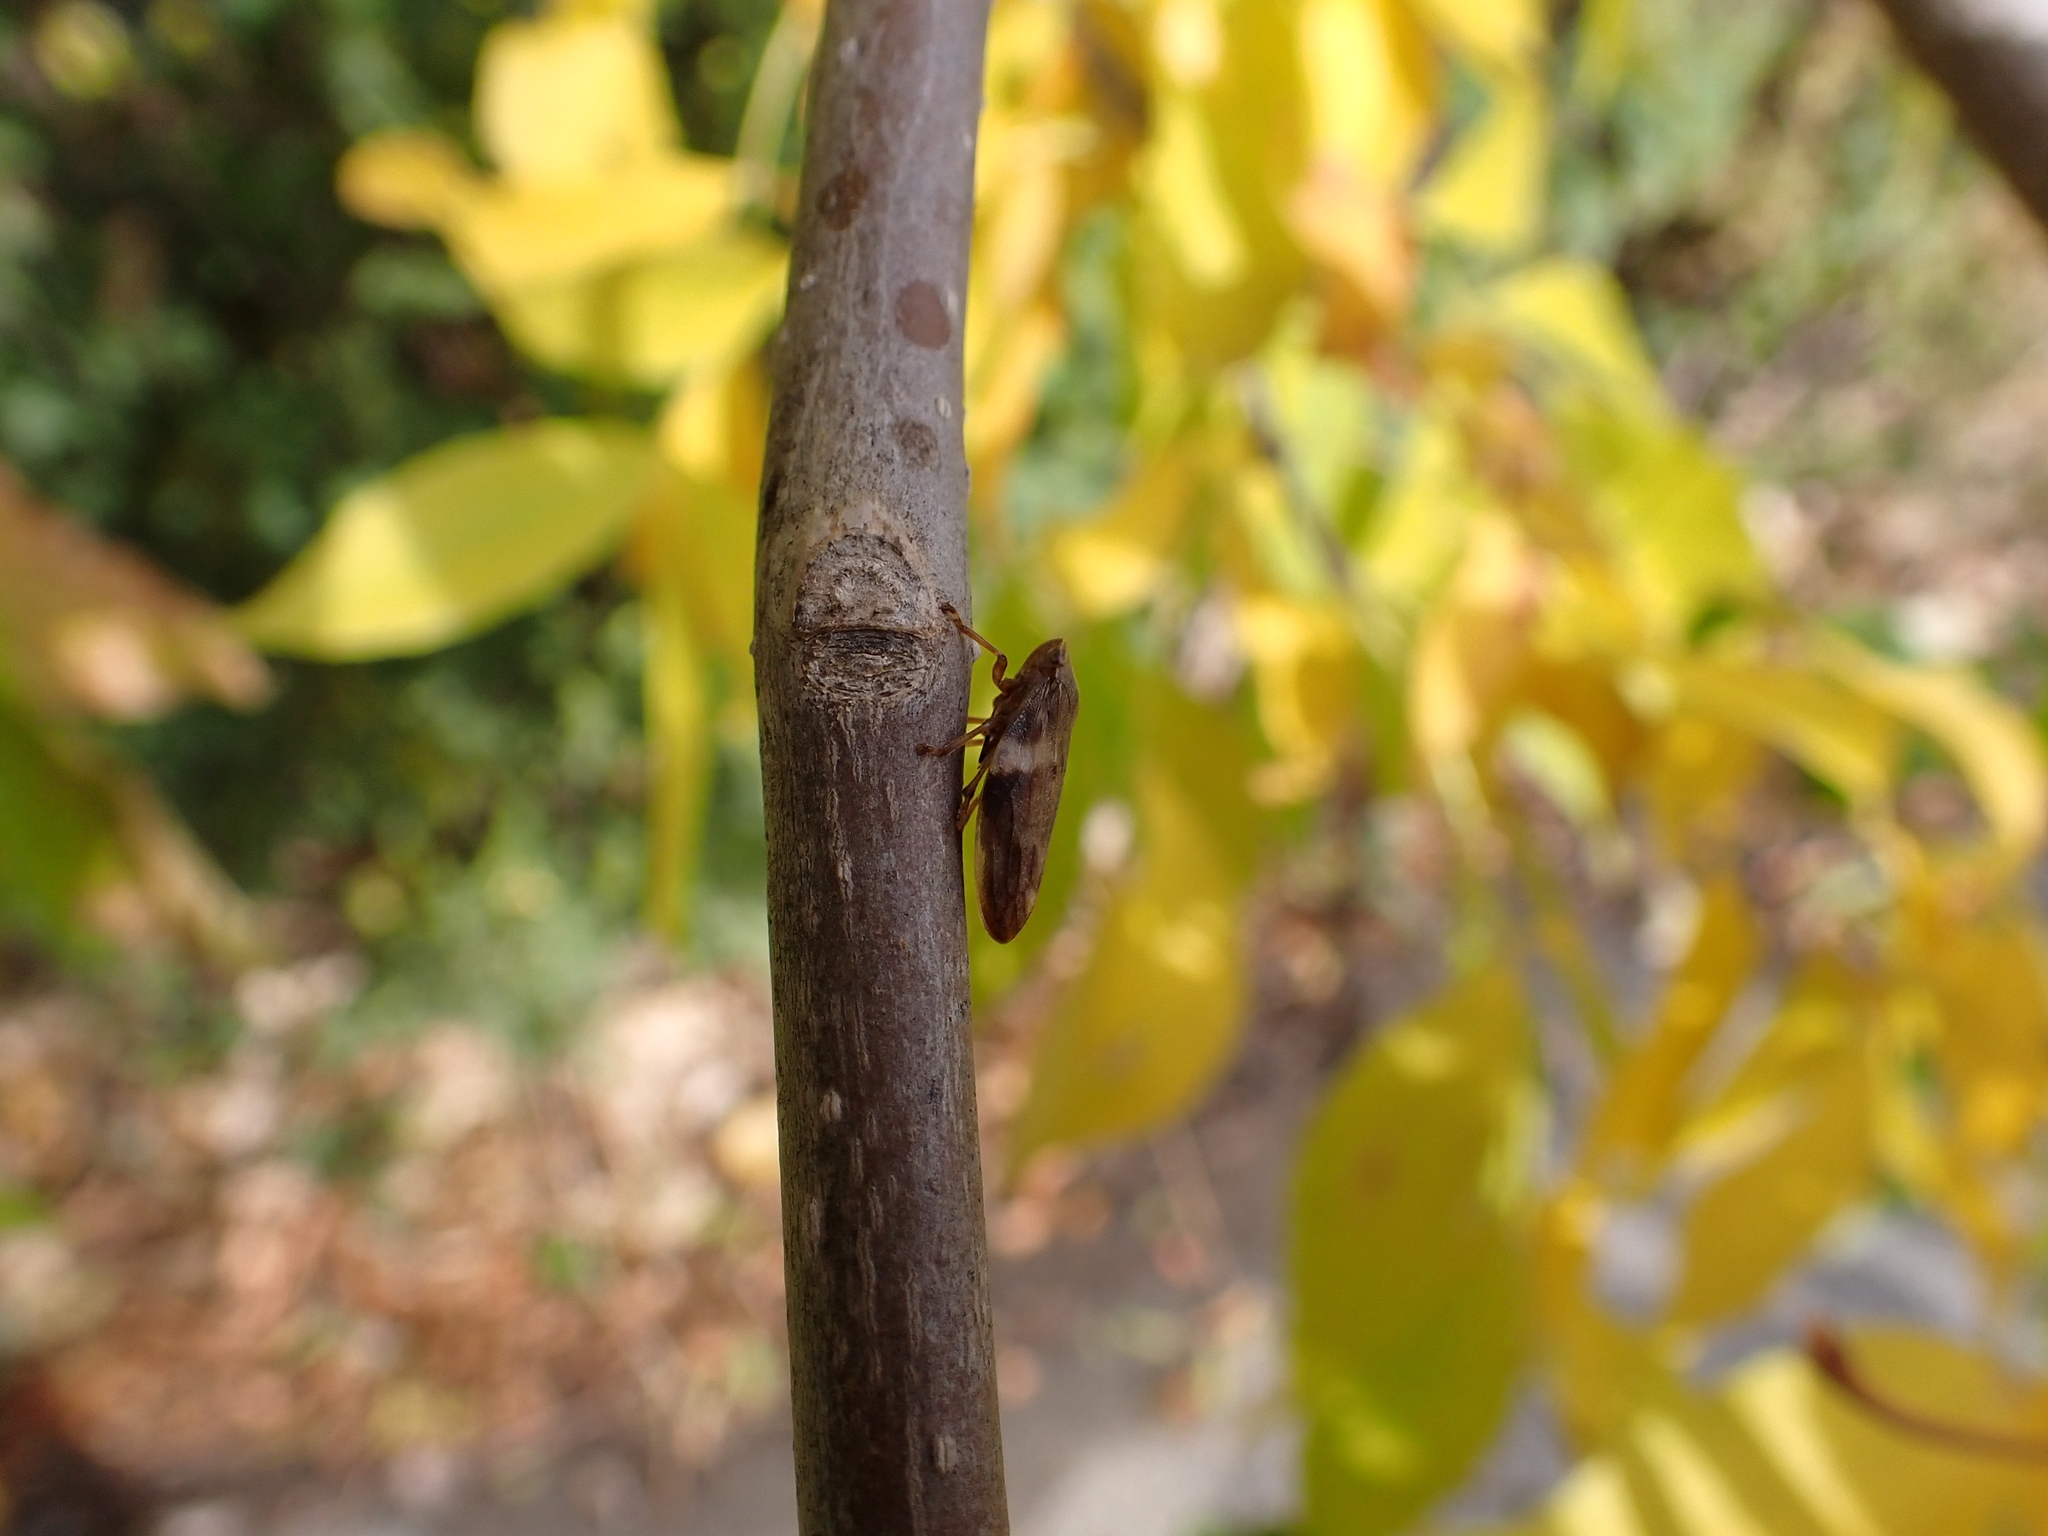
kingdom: Animalia
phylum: Arthropoda
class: Insecta
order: Hemiptera
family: Aphrophoridae
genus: Aphrophora
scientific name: Aphrophora alni
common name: European alder spittlebug
